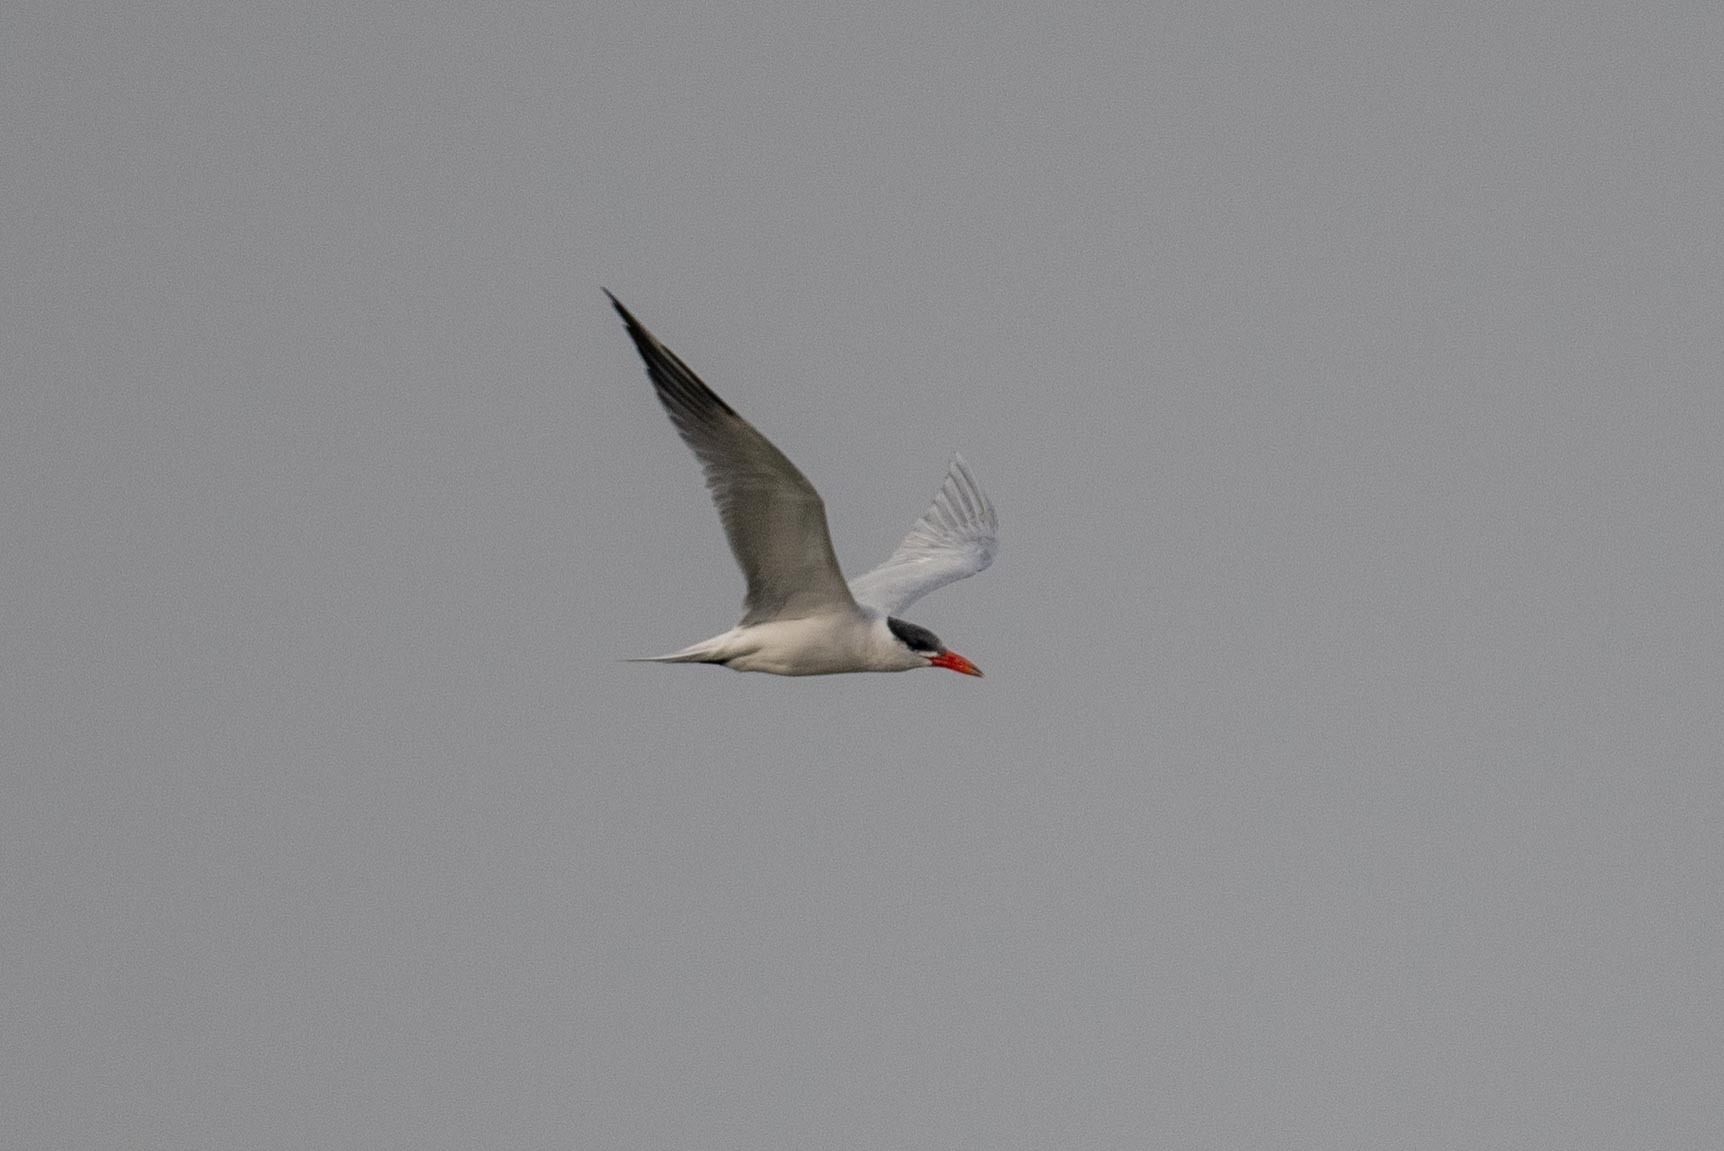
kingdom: Animalia
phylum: Chordata
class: Aves
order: Charadriiformes
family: Laridae
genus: Hydroprogne
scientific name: Hydroprogne caspia
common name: Caspian tern
